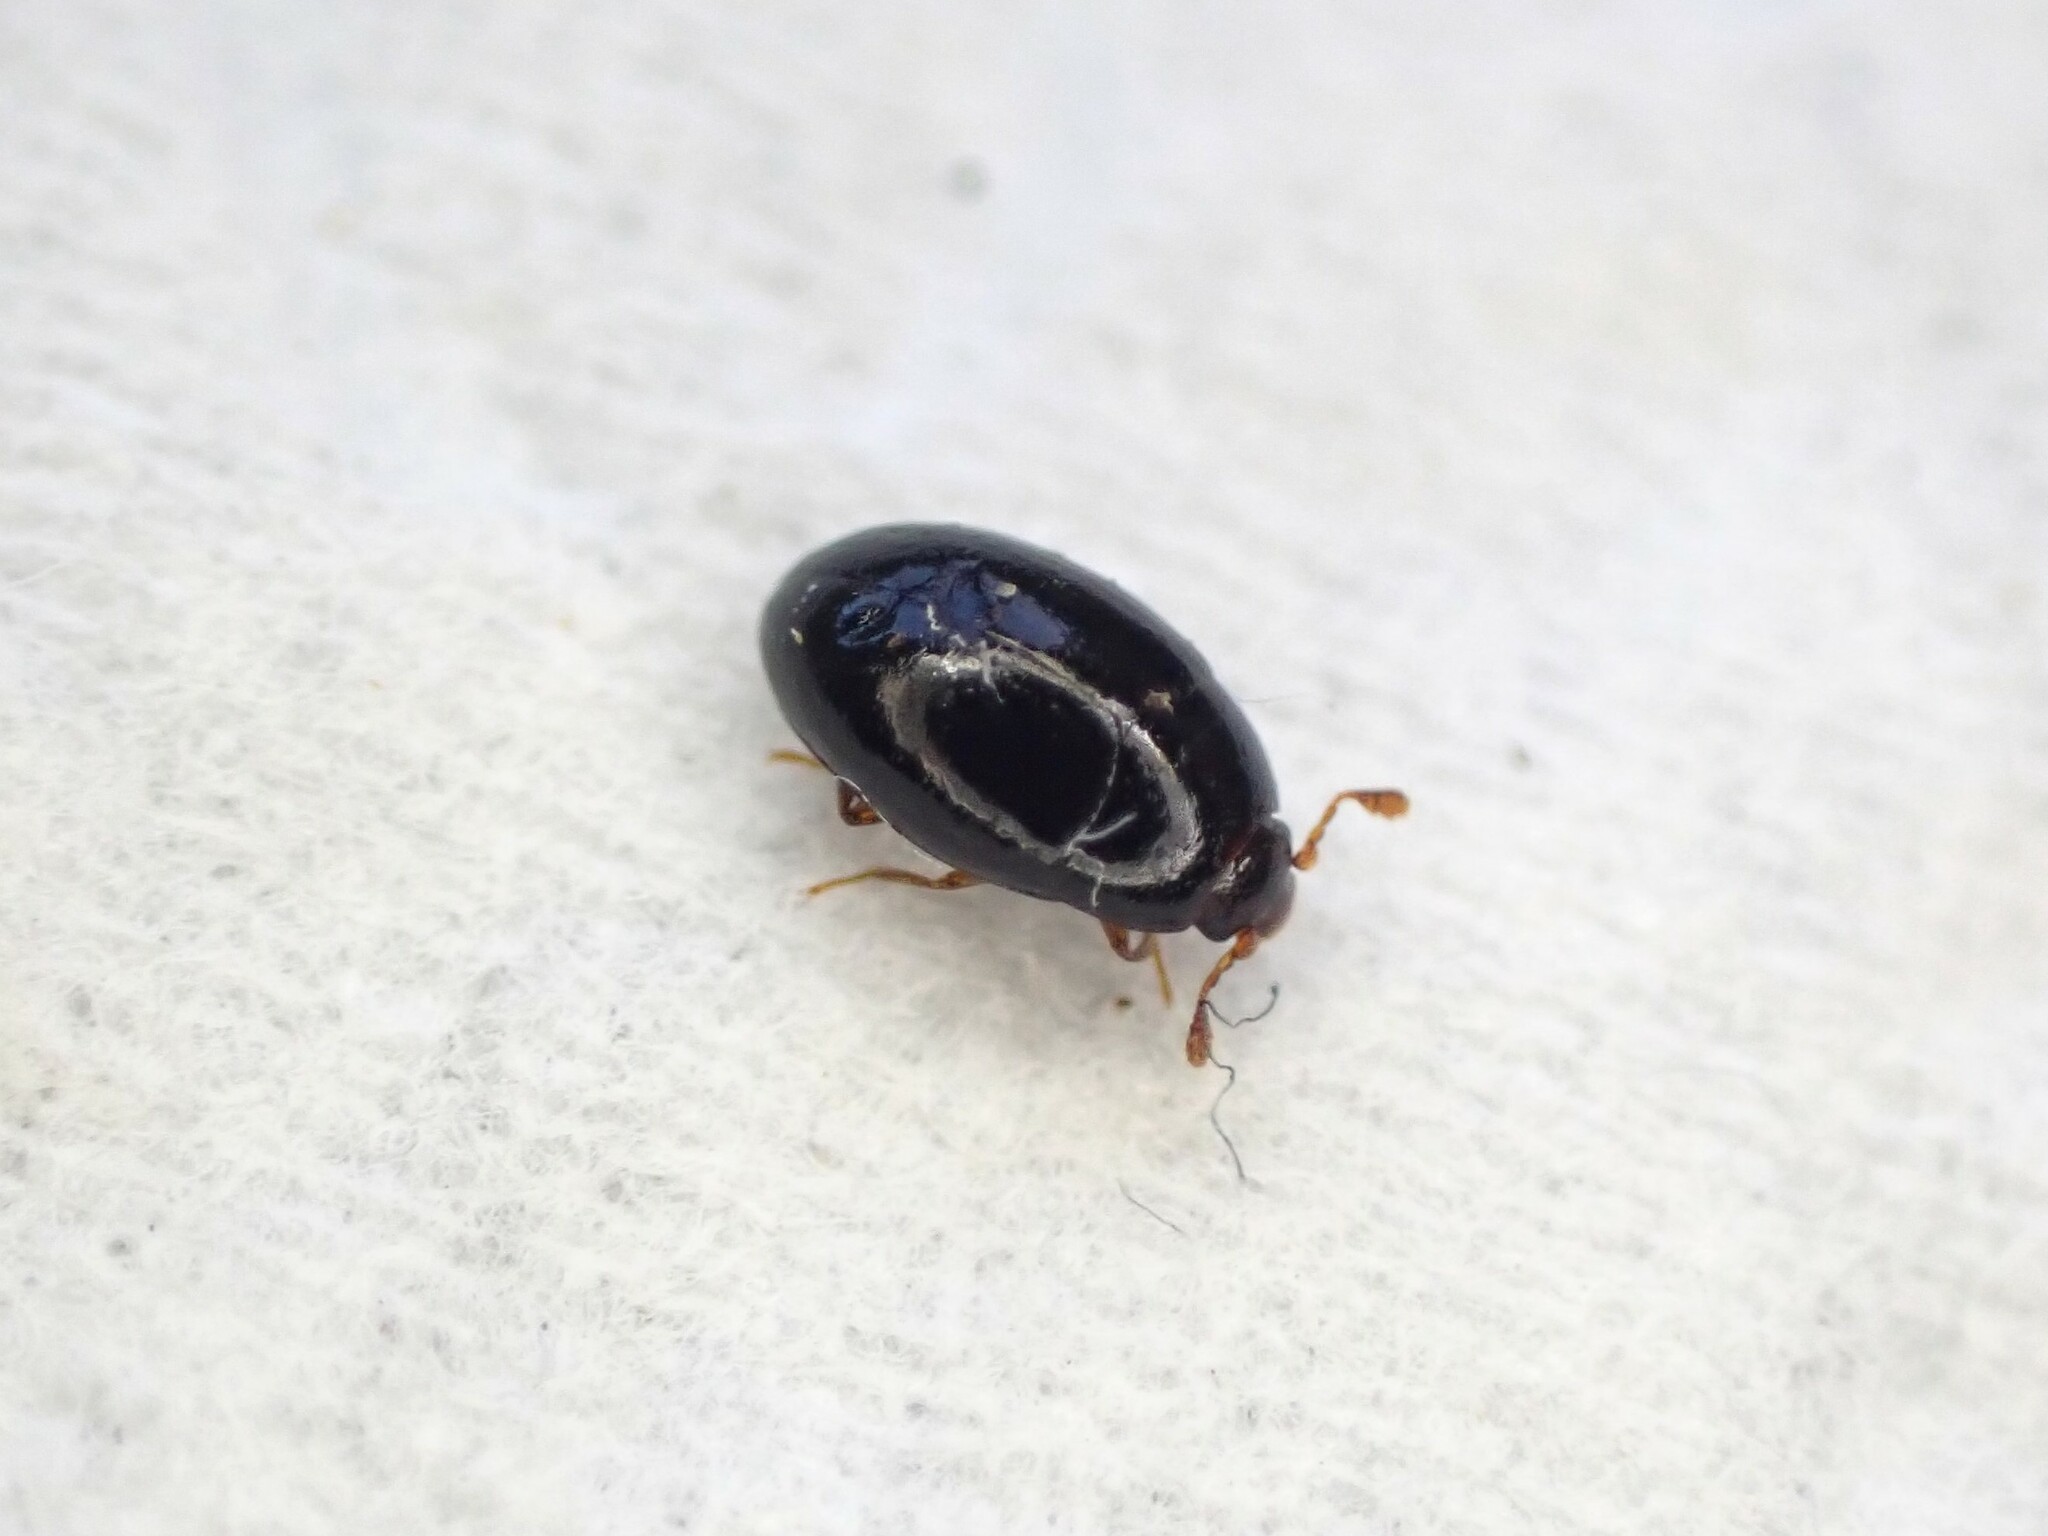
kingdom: Animalia
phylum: Arthropoda
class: Insecta
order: Coleoptera
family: Cerylonidae
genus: Hypodacnella
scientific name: Hypodacnella
